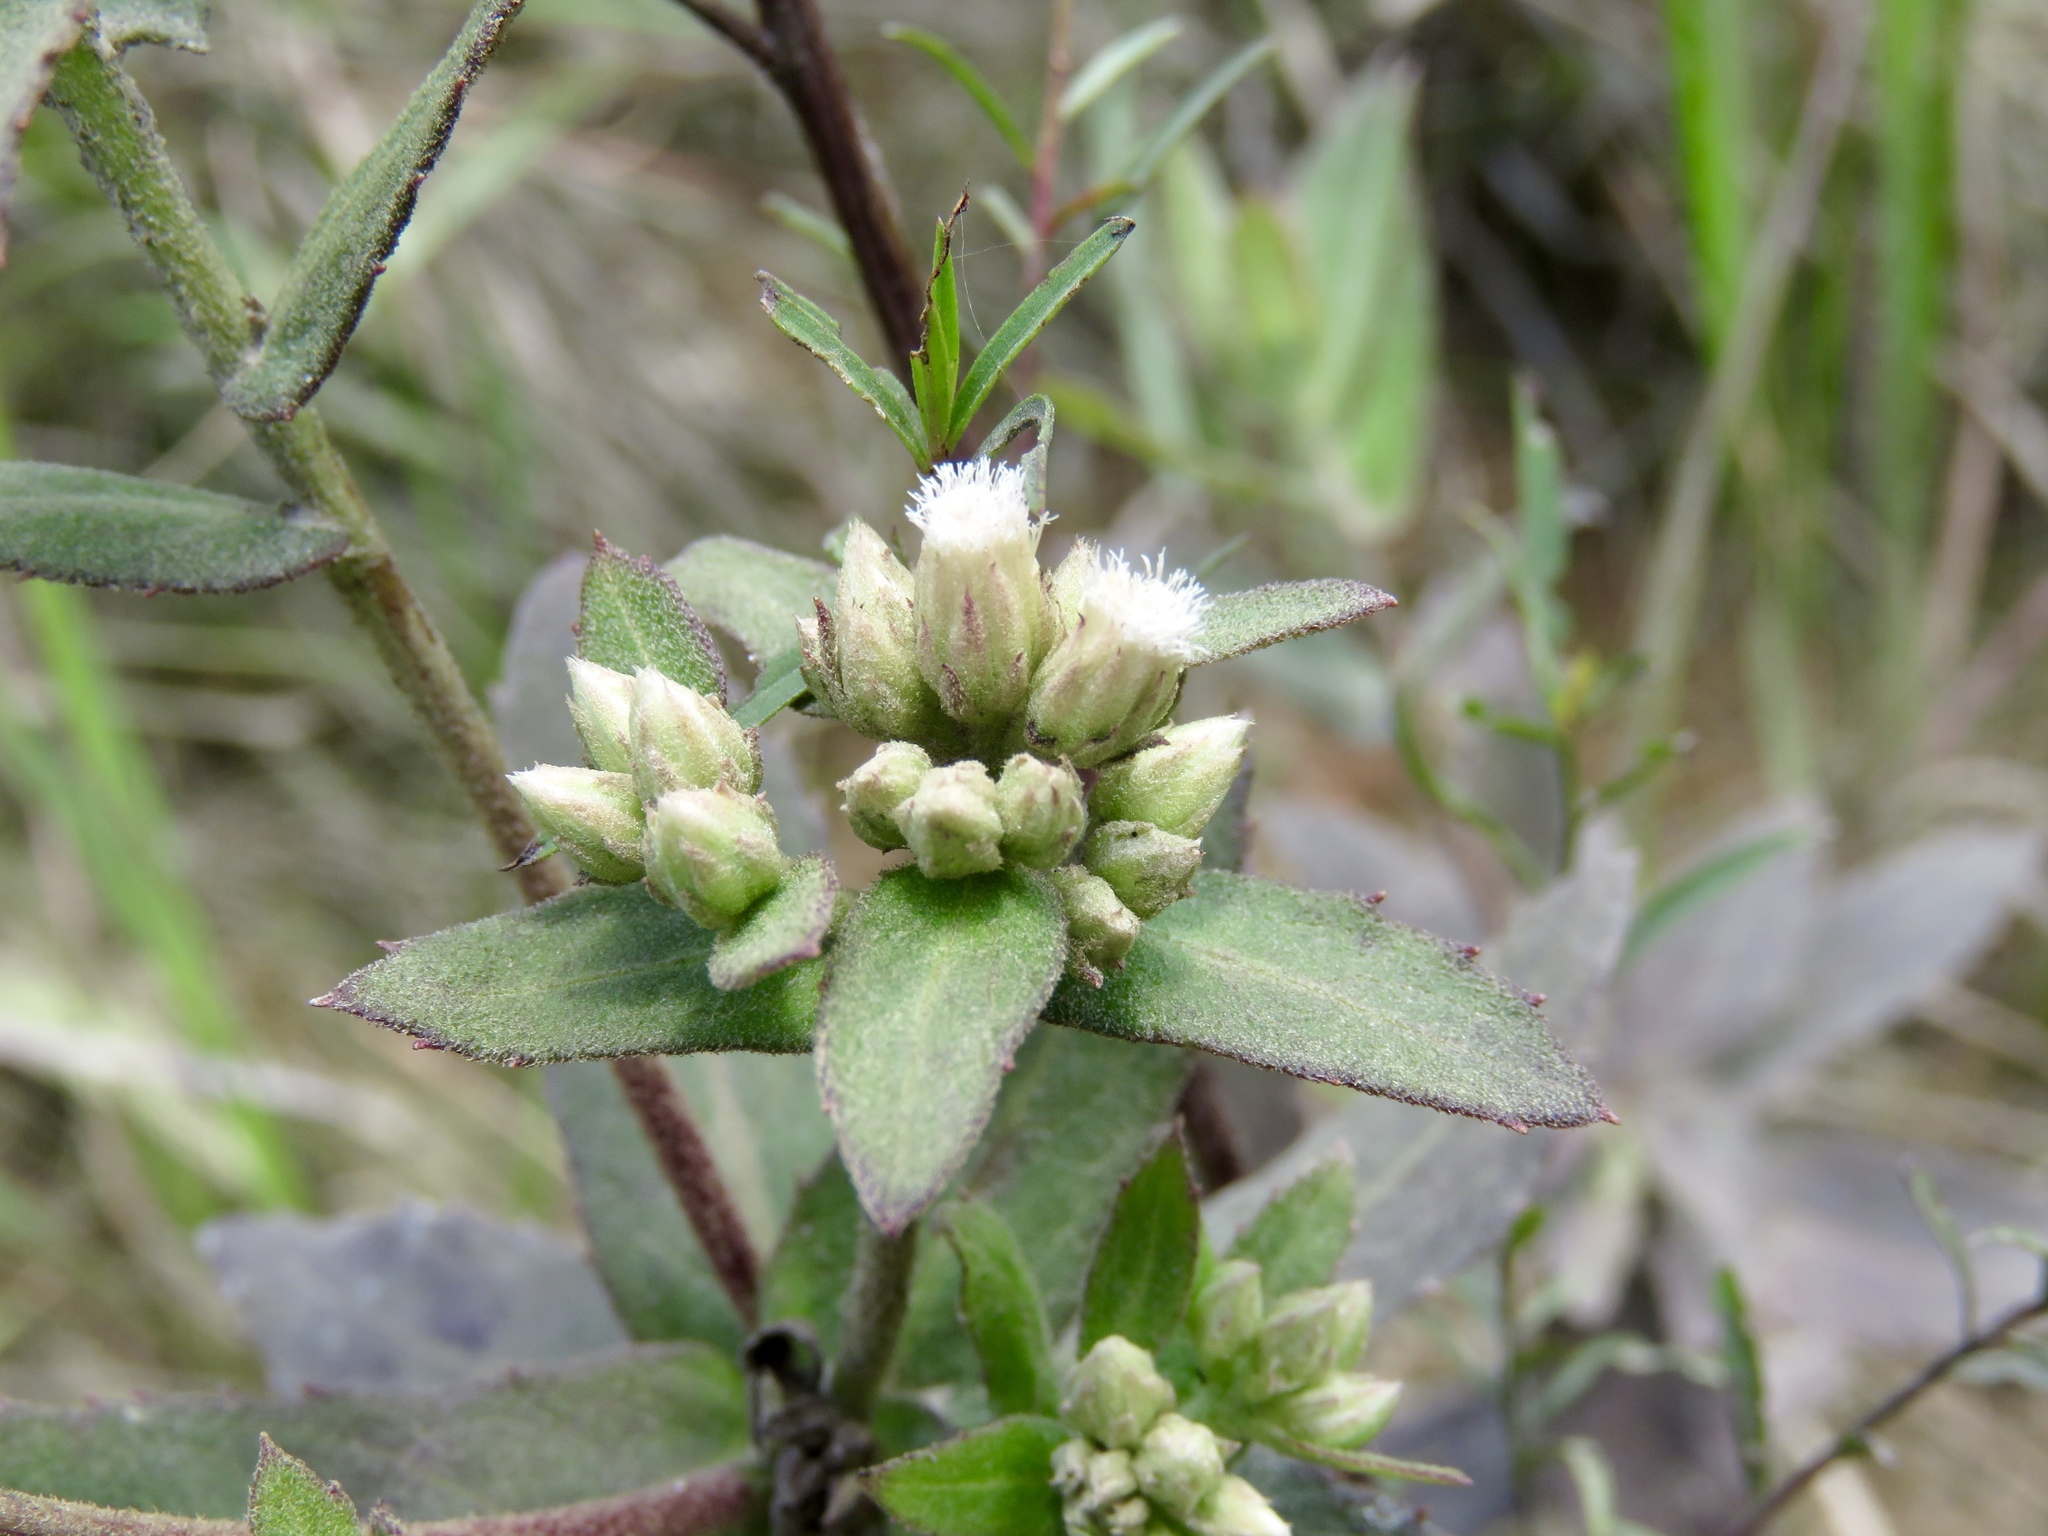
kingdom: Plantae
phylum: Tracheophyta
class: Magnoliopsida
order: Asterales
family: Asteraceae
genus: Pluchea
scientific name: Pluchea foetida
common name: Stinking camphorweed
